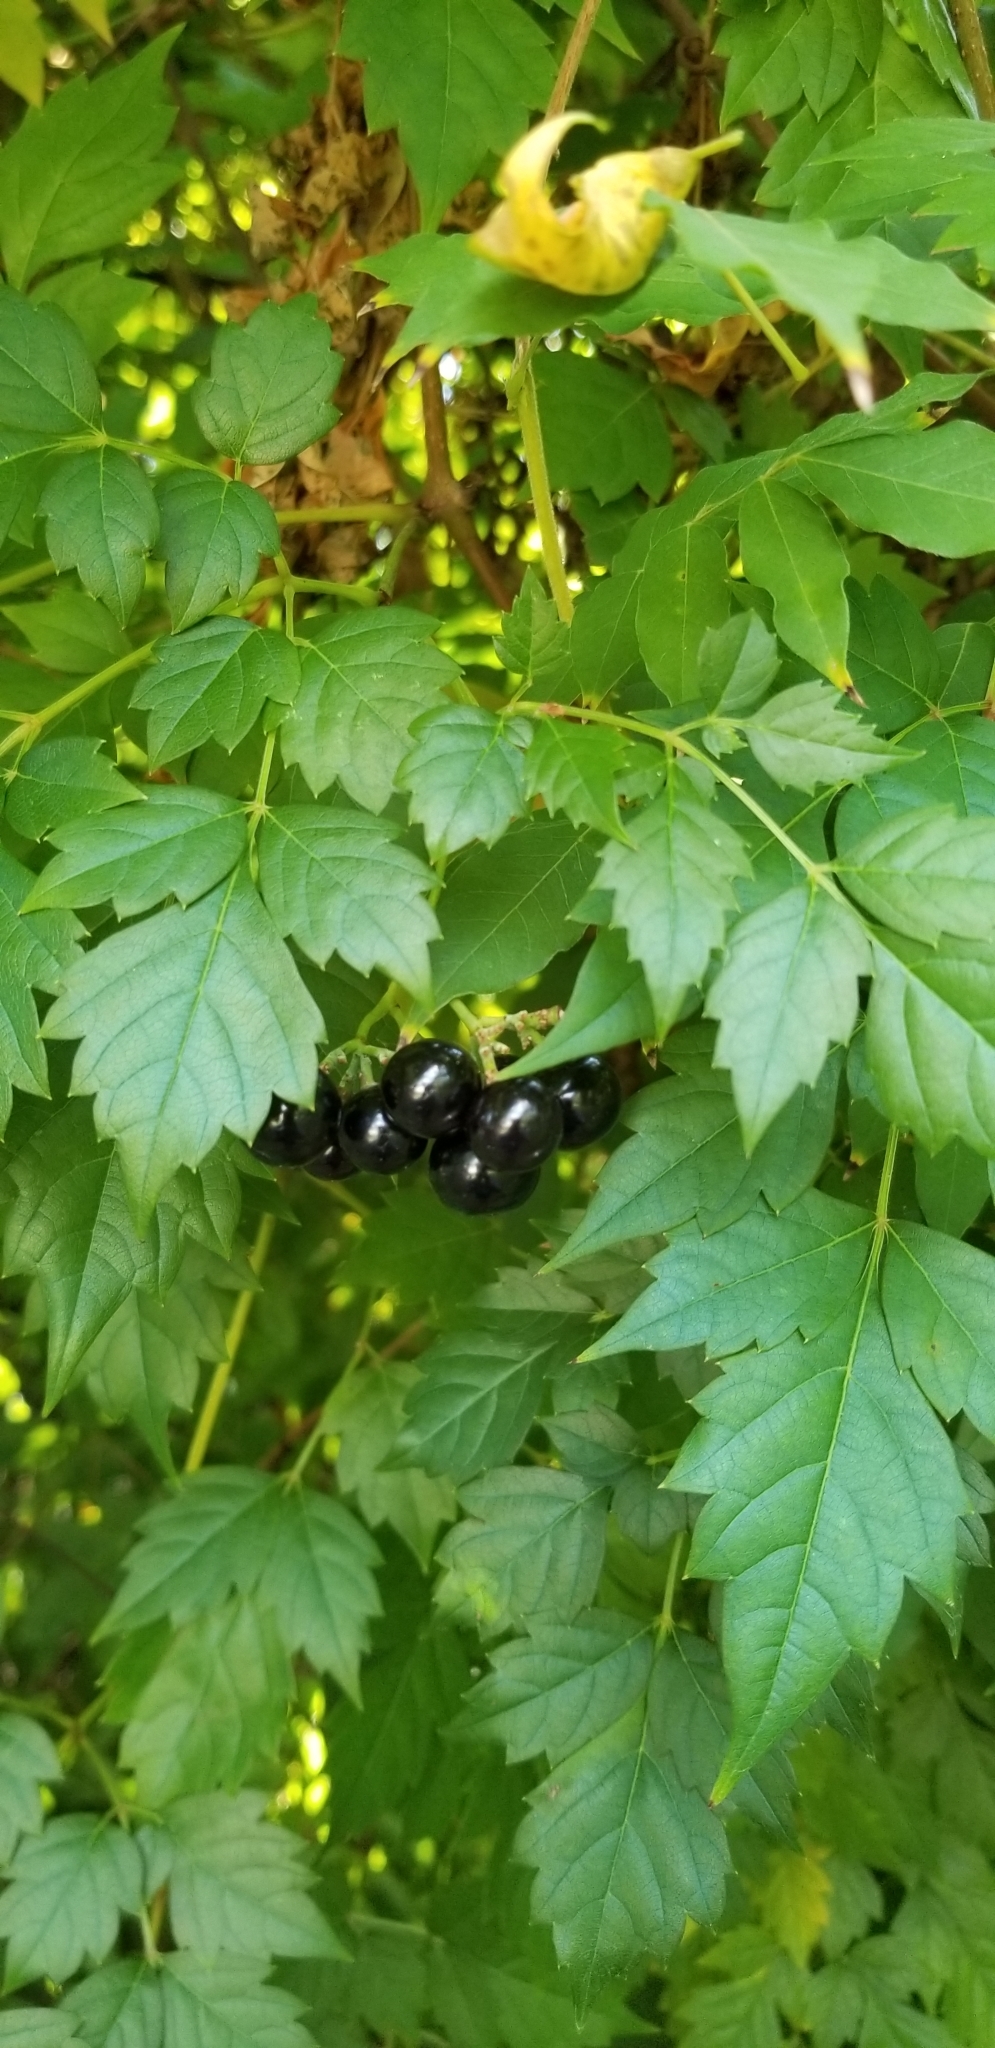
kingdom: Plantae
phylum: Tracheophyta
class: Magnoliopsida
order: Vitales
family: Vitaceae
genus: Nekemias
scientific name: Nekemias arborea
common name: Peppervine
